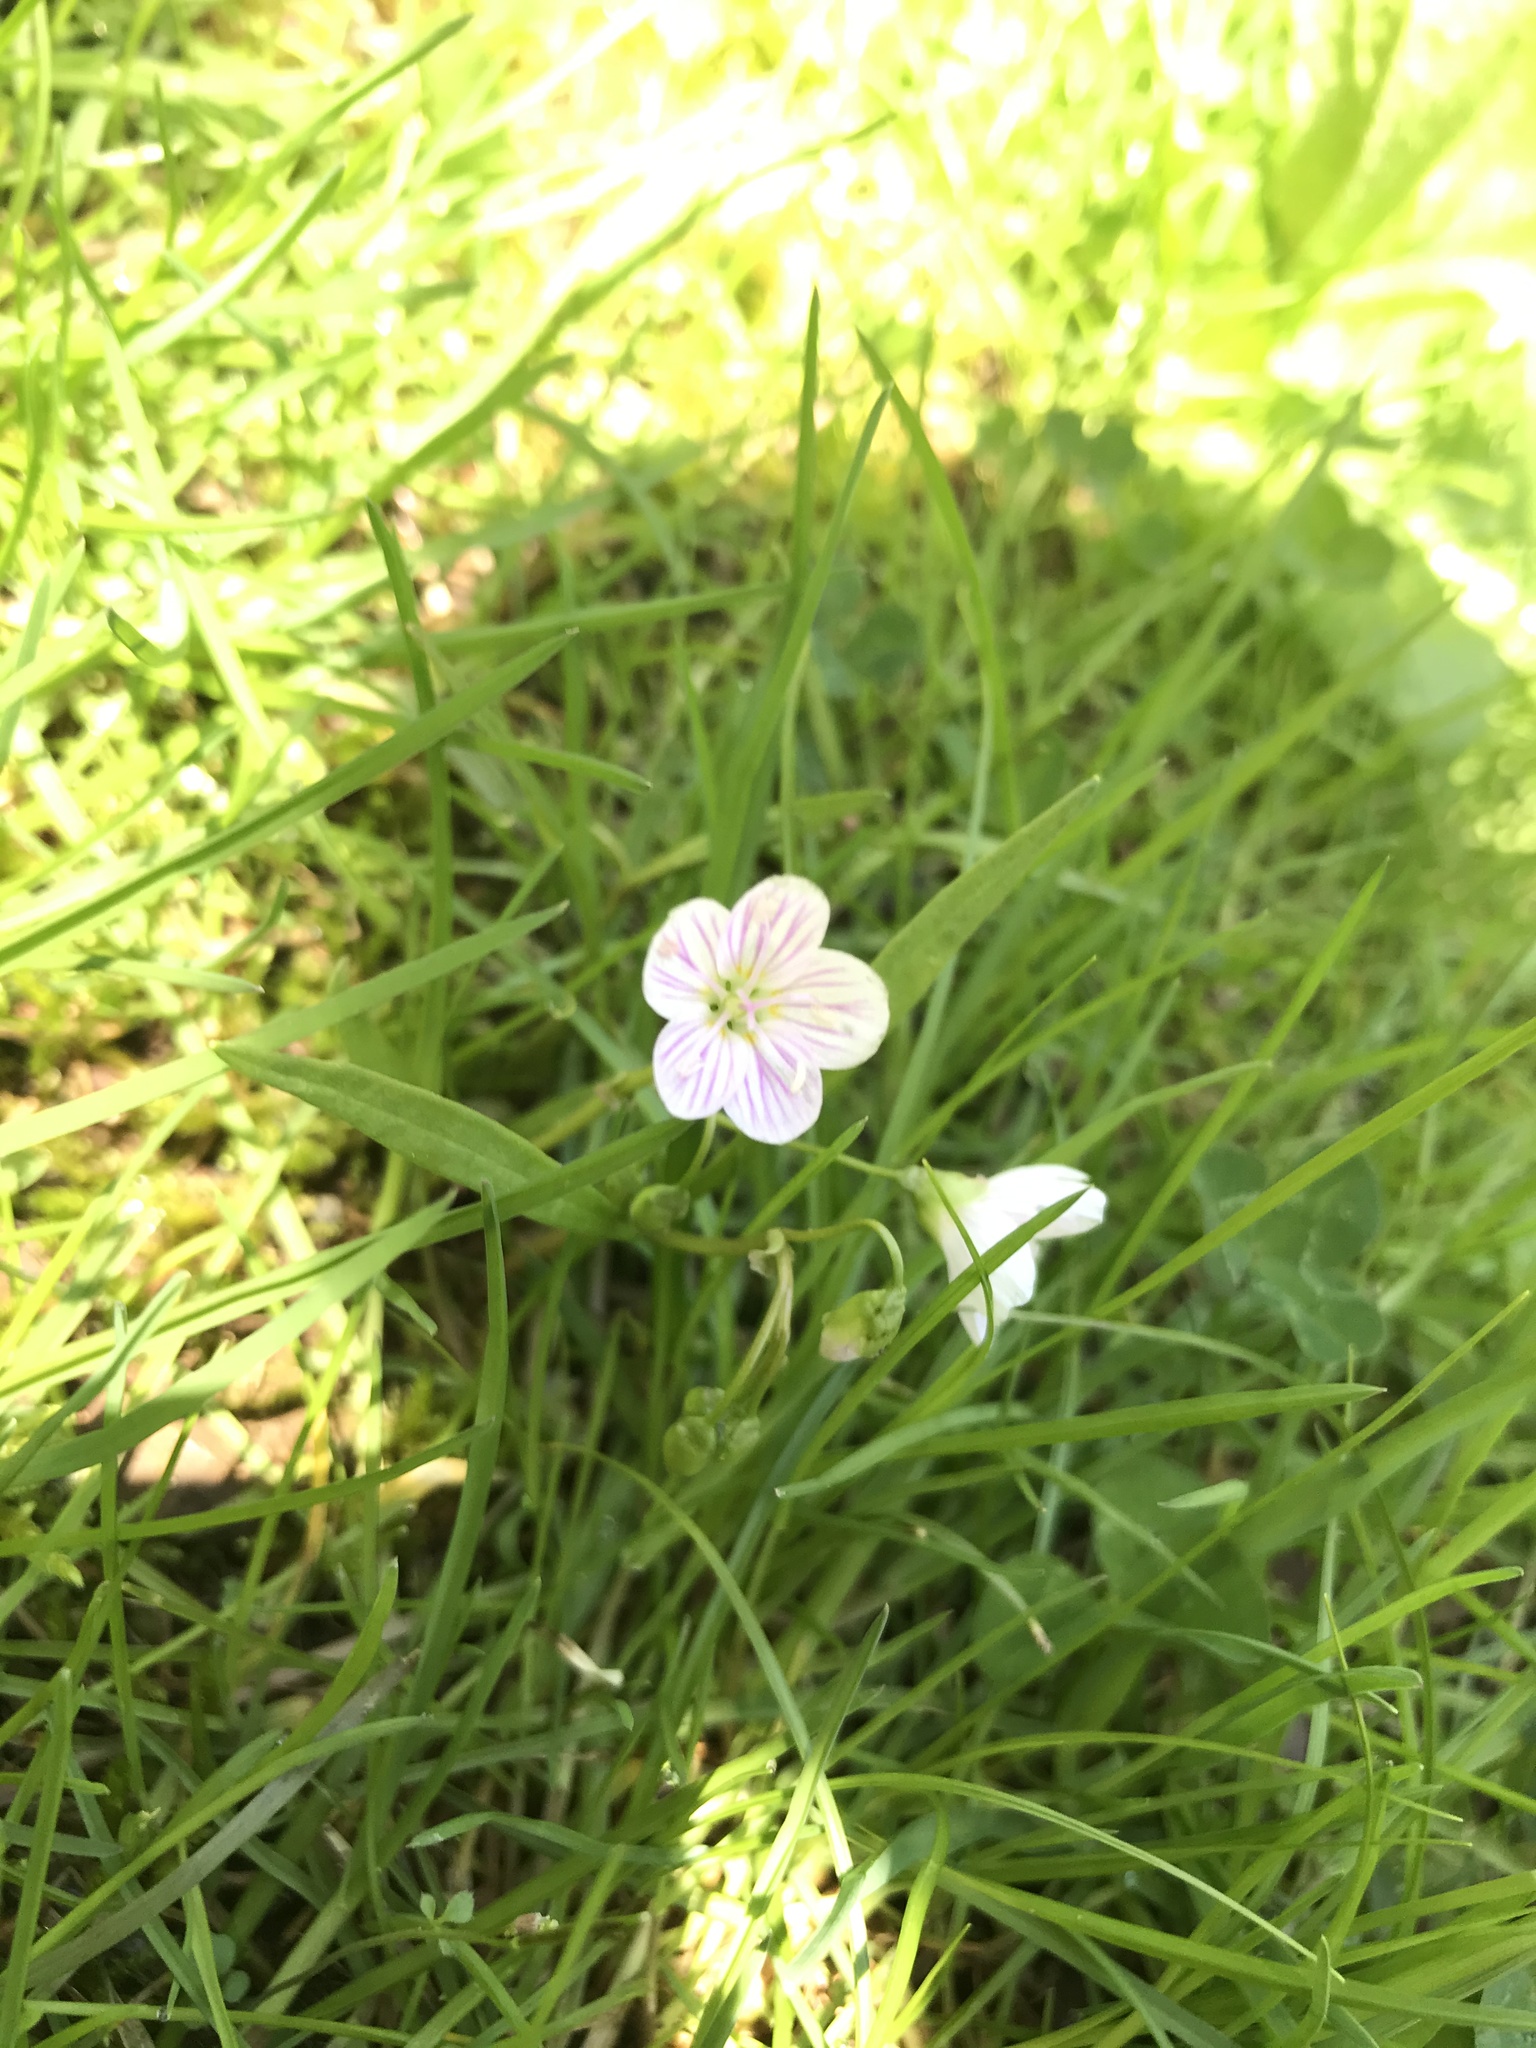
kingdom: Plantae
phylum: Tracheophyta
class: Magnoliopsida
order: Caryophyllales
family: Montiaceae
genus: Claytonia
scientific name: Claytonia virginica
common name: Virginia springbeauty
